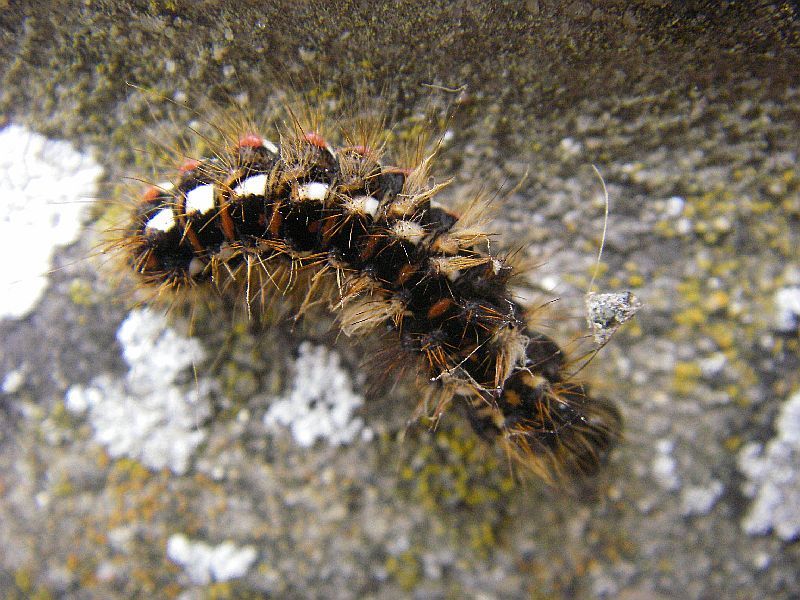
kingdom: Animalia
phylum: Arthropoda
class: Insecta
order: Lepidoptera
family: Noctuidae
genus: Acronicta
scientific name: Acronicta rumicis
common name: Knot grass
